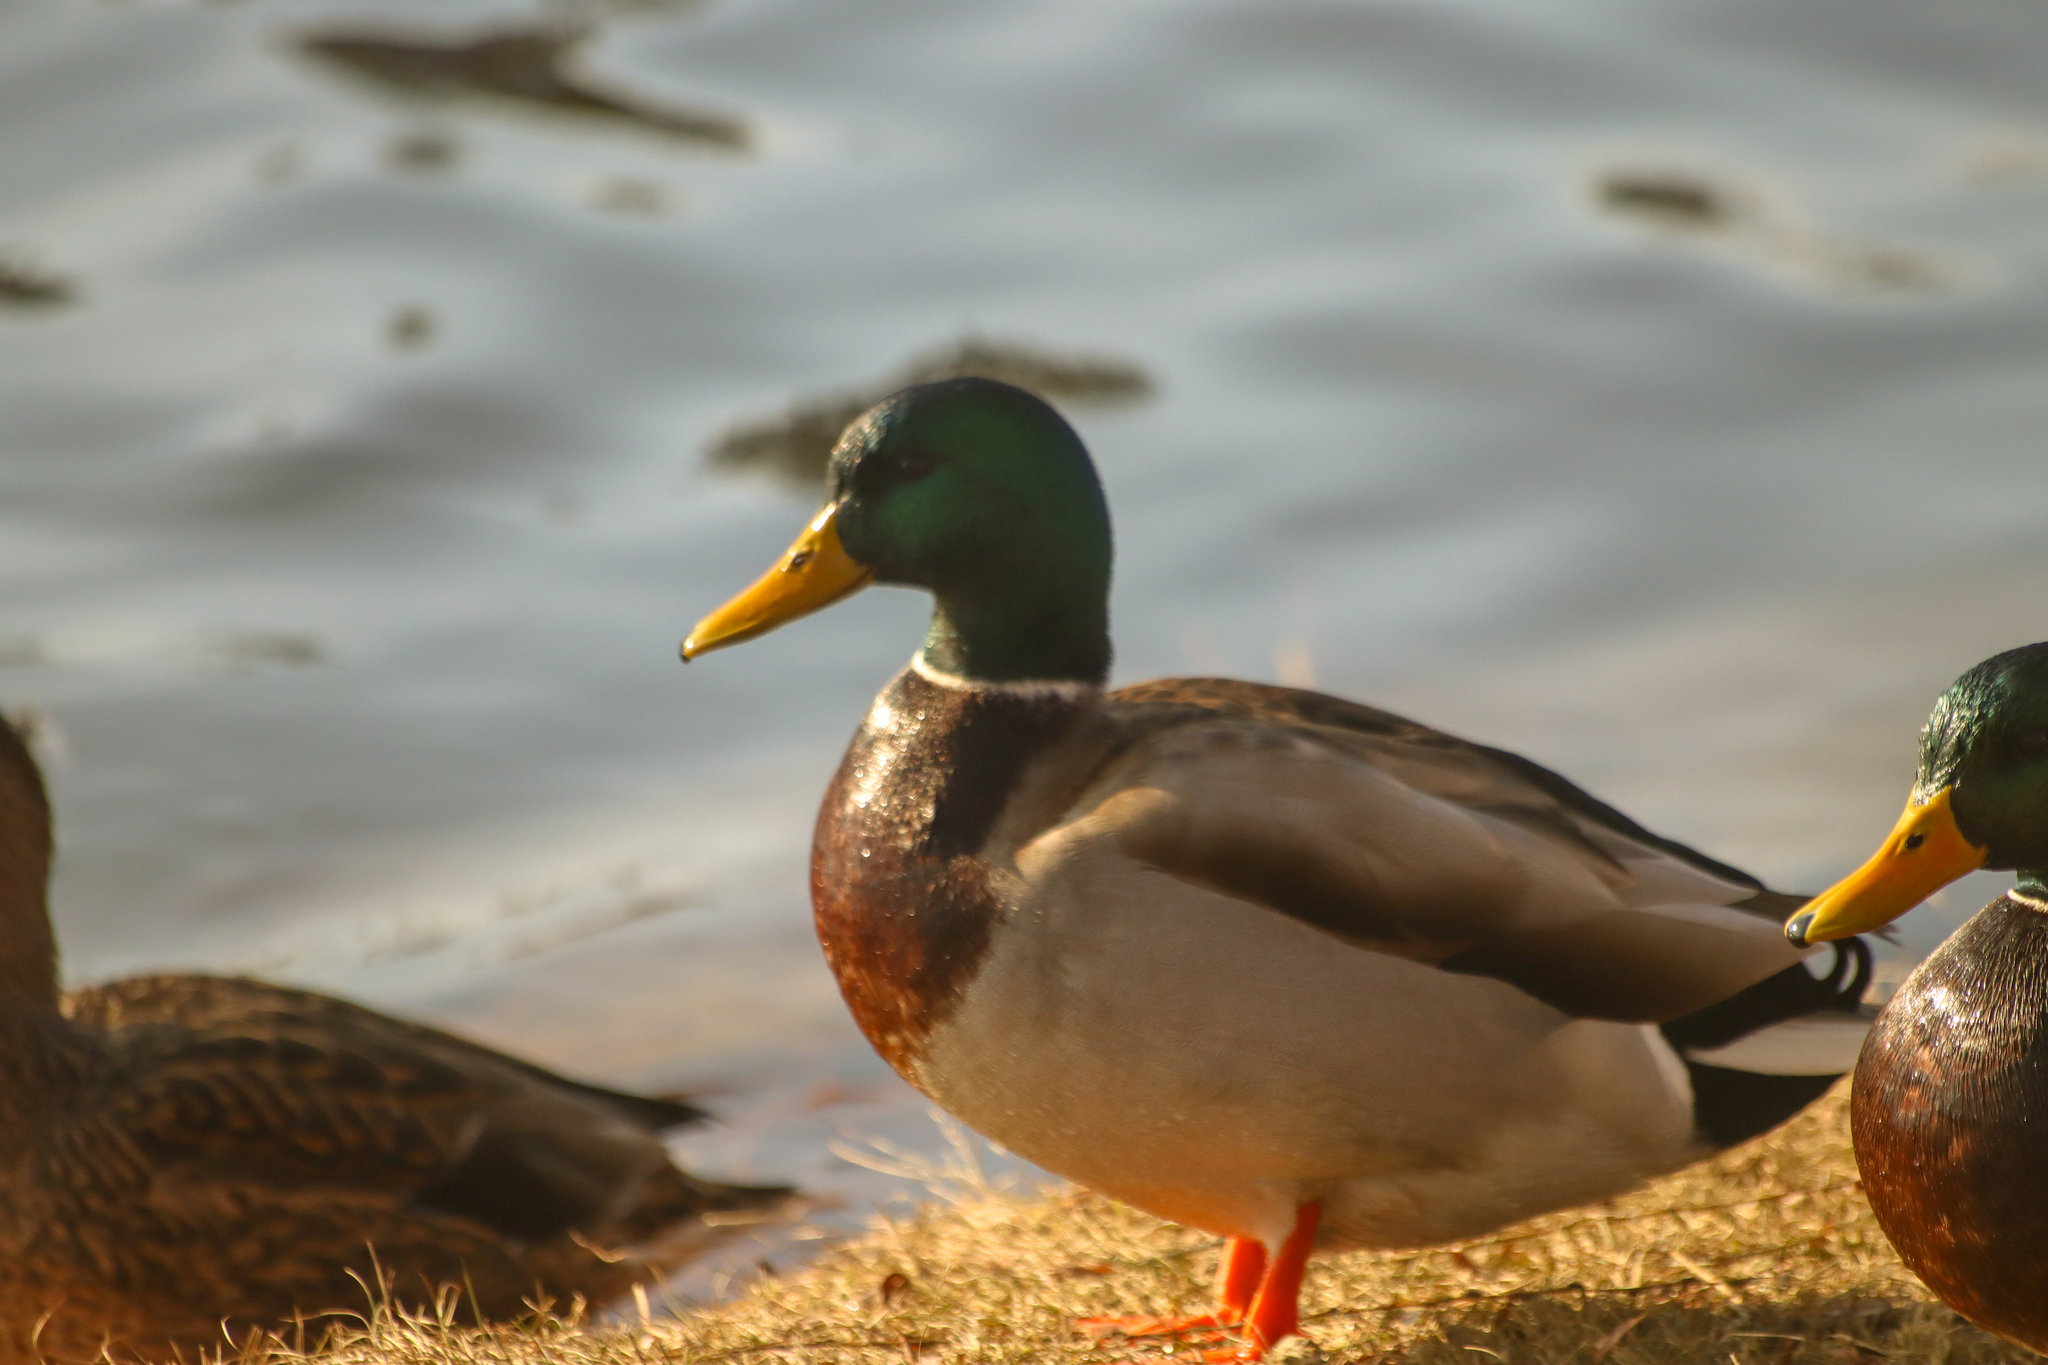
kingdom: Animalia
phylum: Chordata
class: Aves
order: Anseriformes
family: Anatidae
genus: Anas
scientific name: Anas platyrhynchos
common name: Mallard
